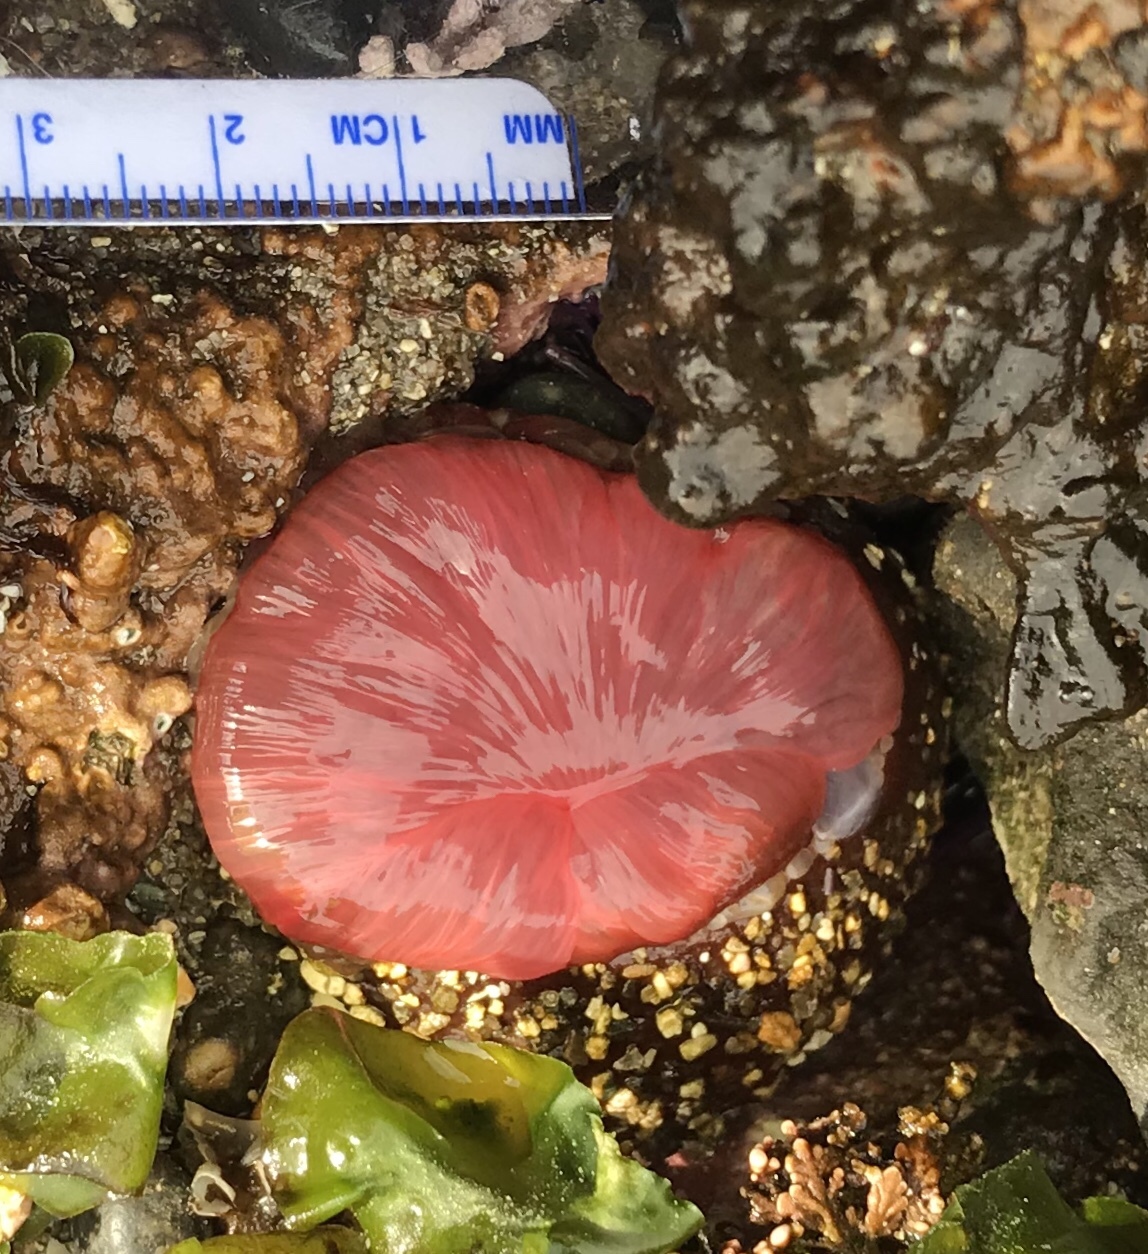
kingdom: Animalia
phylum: Cnidaria
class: Anthozoa
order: Actiniaria
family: Actiniidae
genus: Urticina
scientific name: Urticina clandestina
